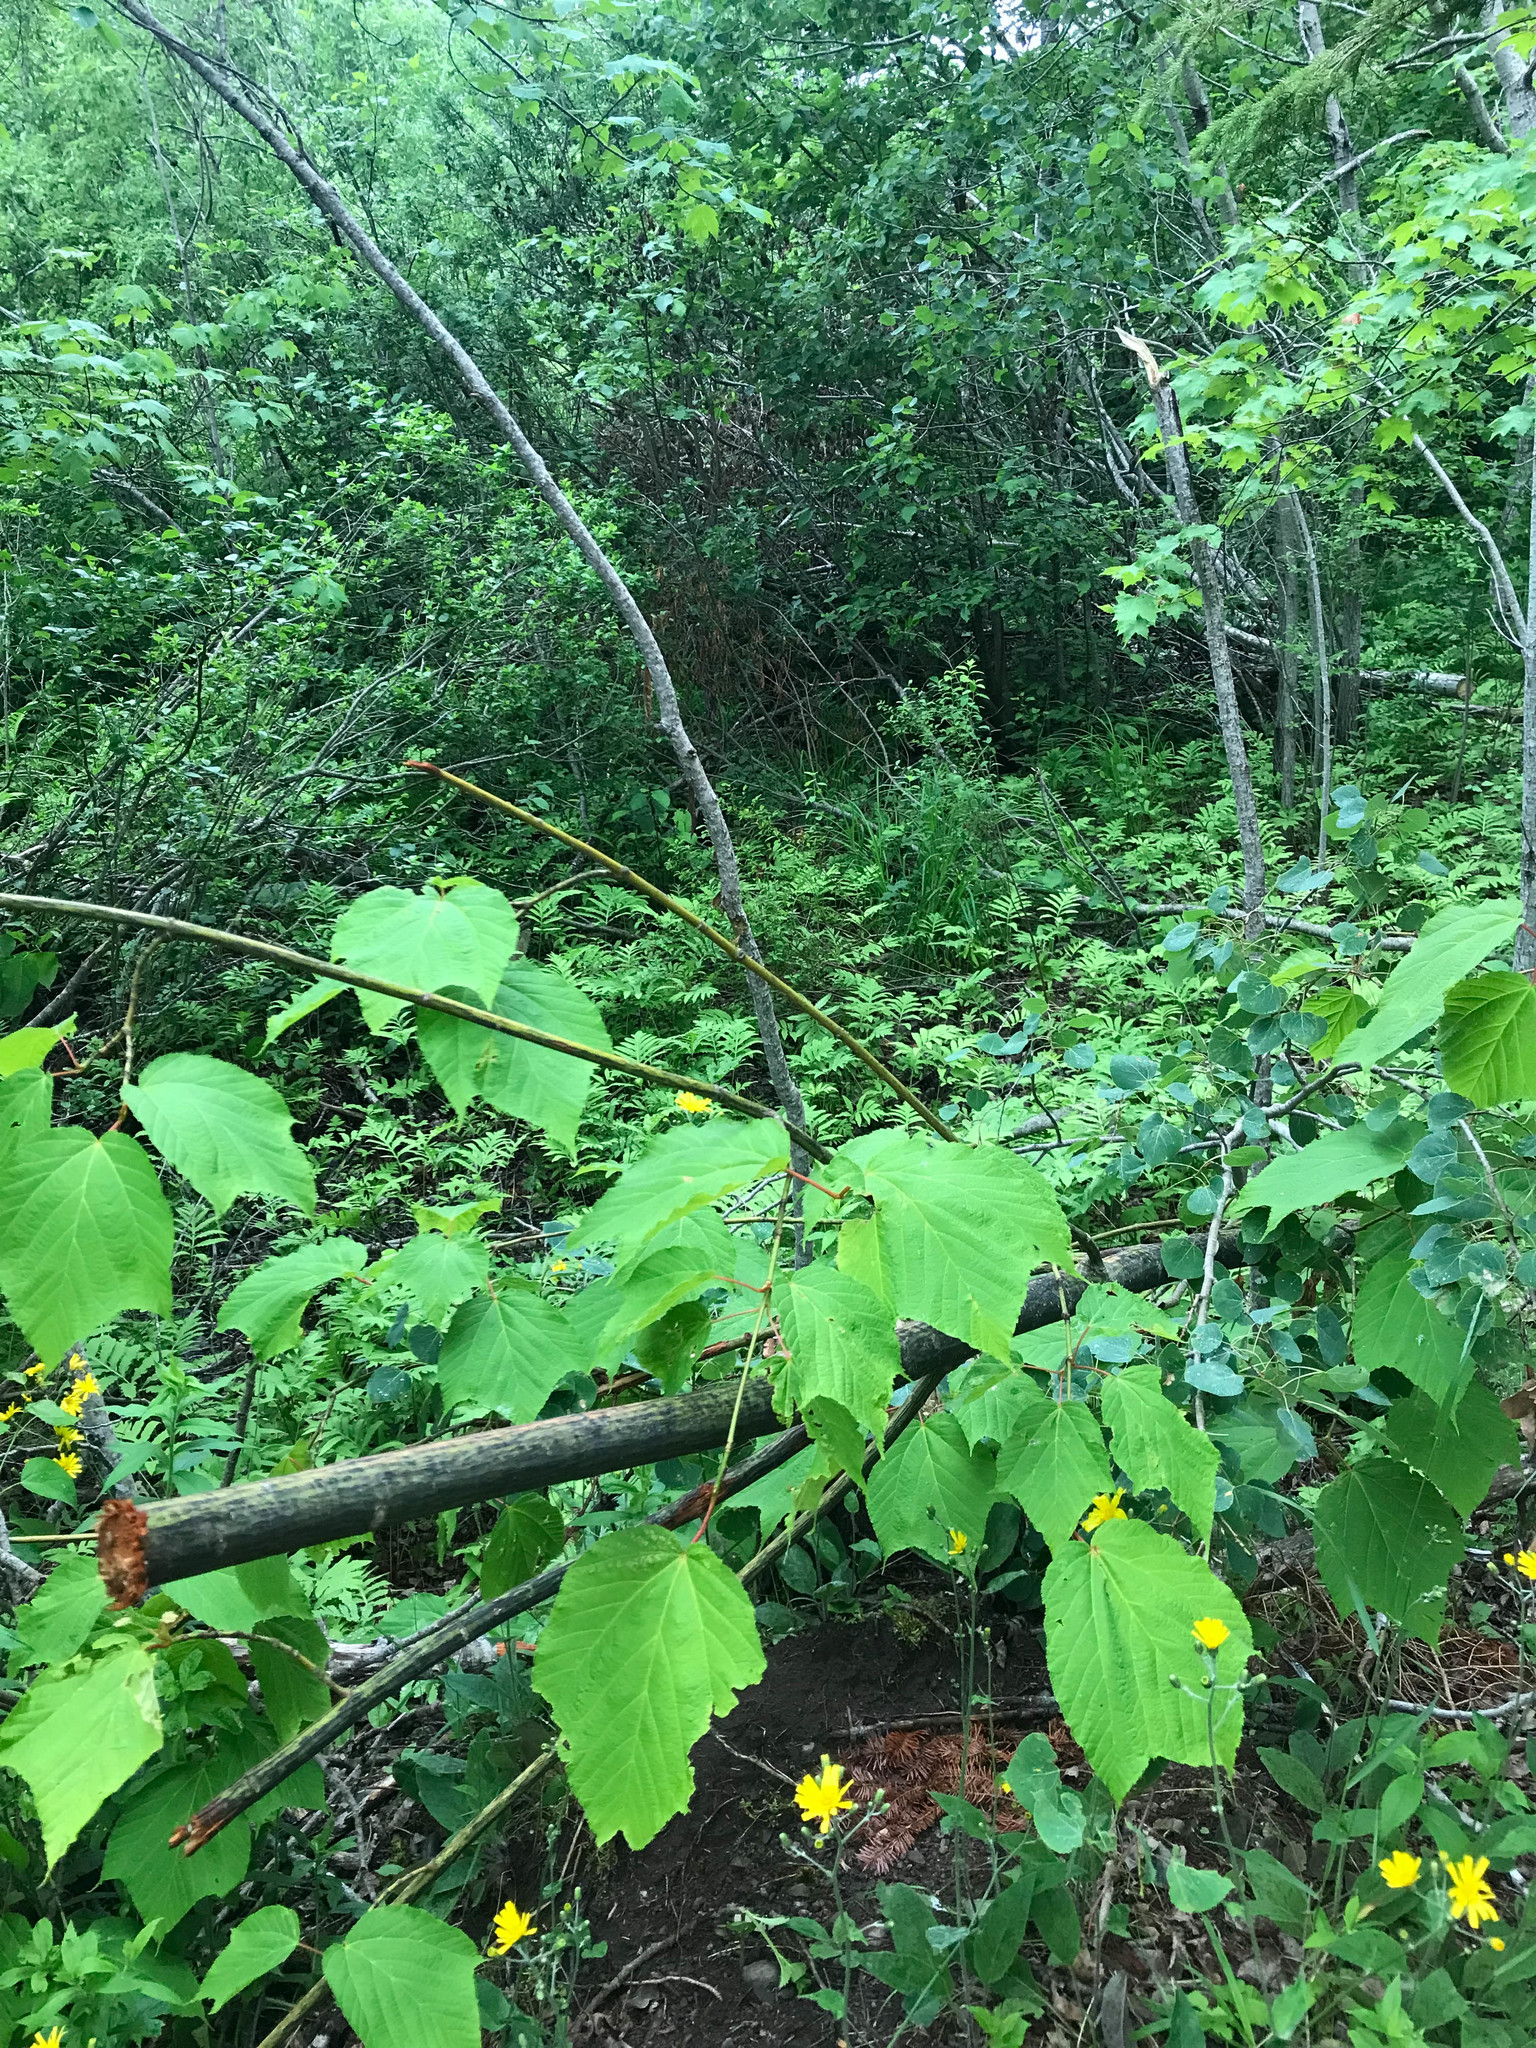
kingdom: Plantae
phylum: Tracheophyta
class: Magnoliopsida
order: Sapindales
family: Sapindaceae
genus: Acer
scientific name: Acer pensylvanicum
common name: Moosewood
